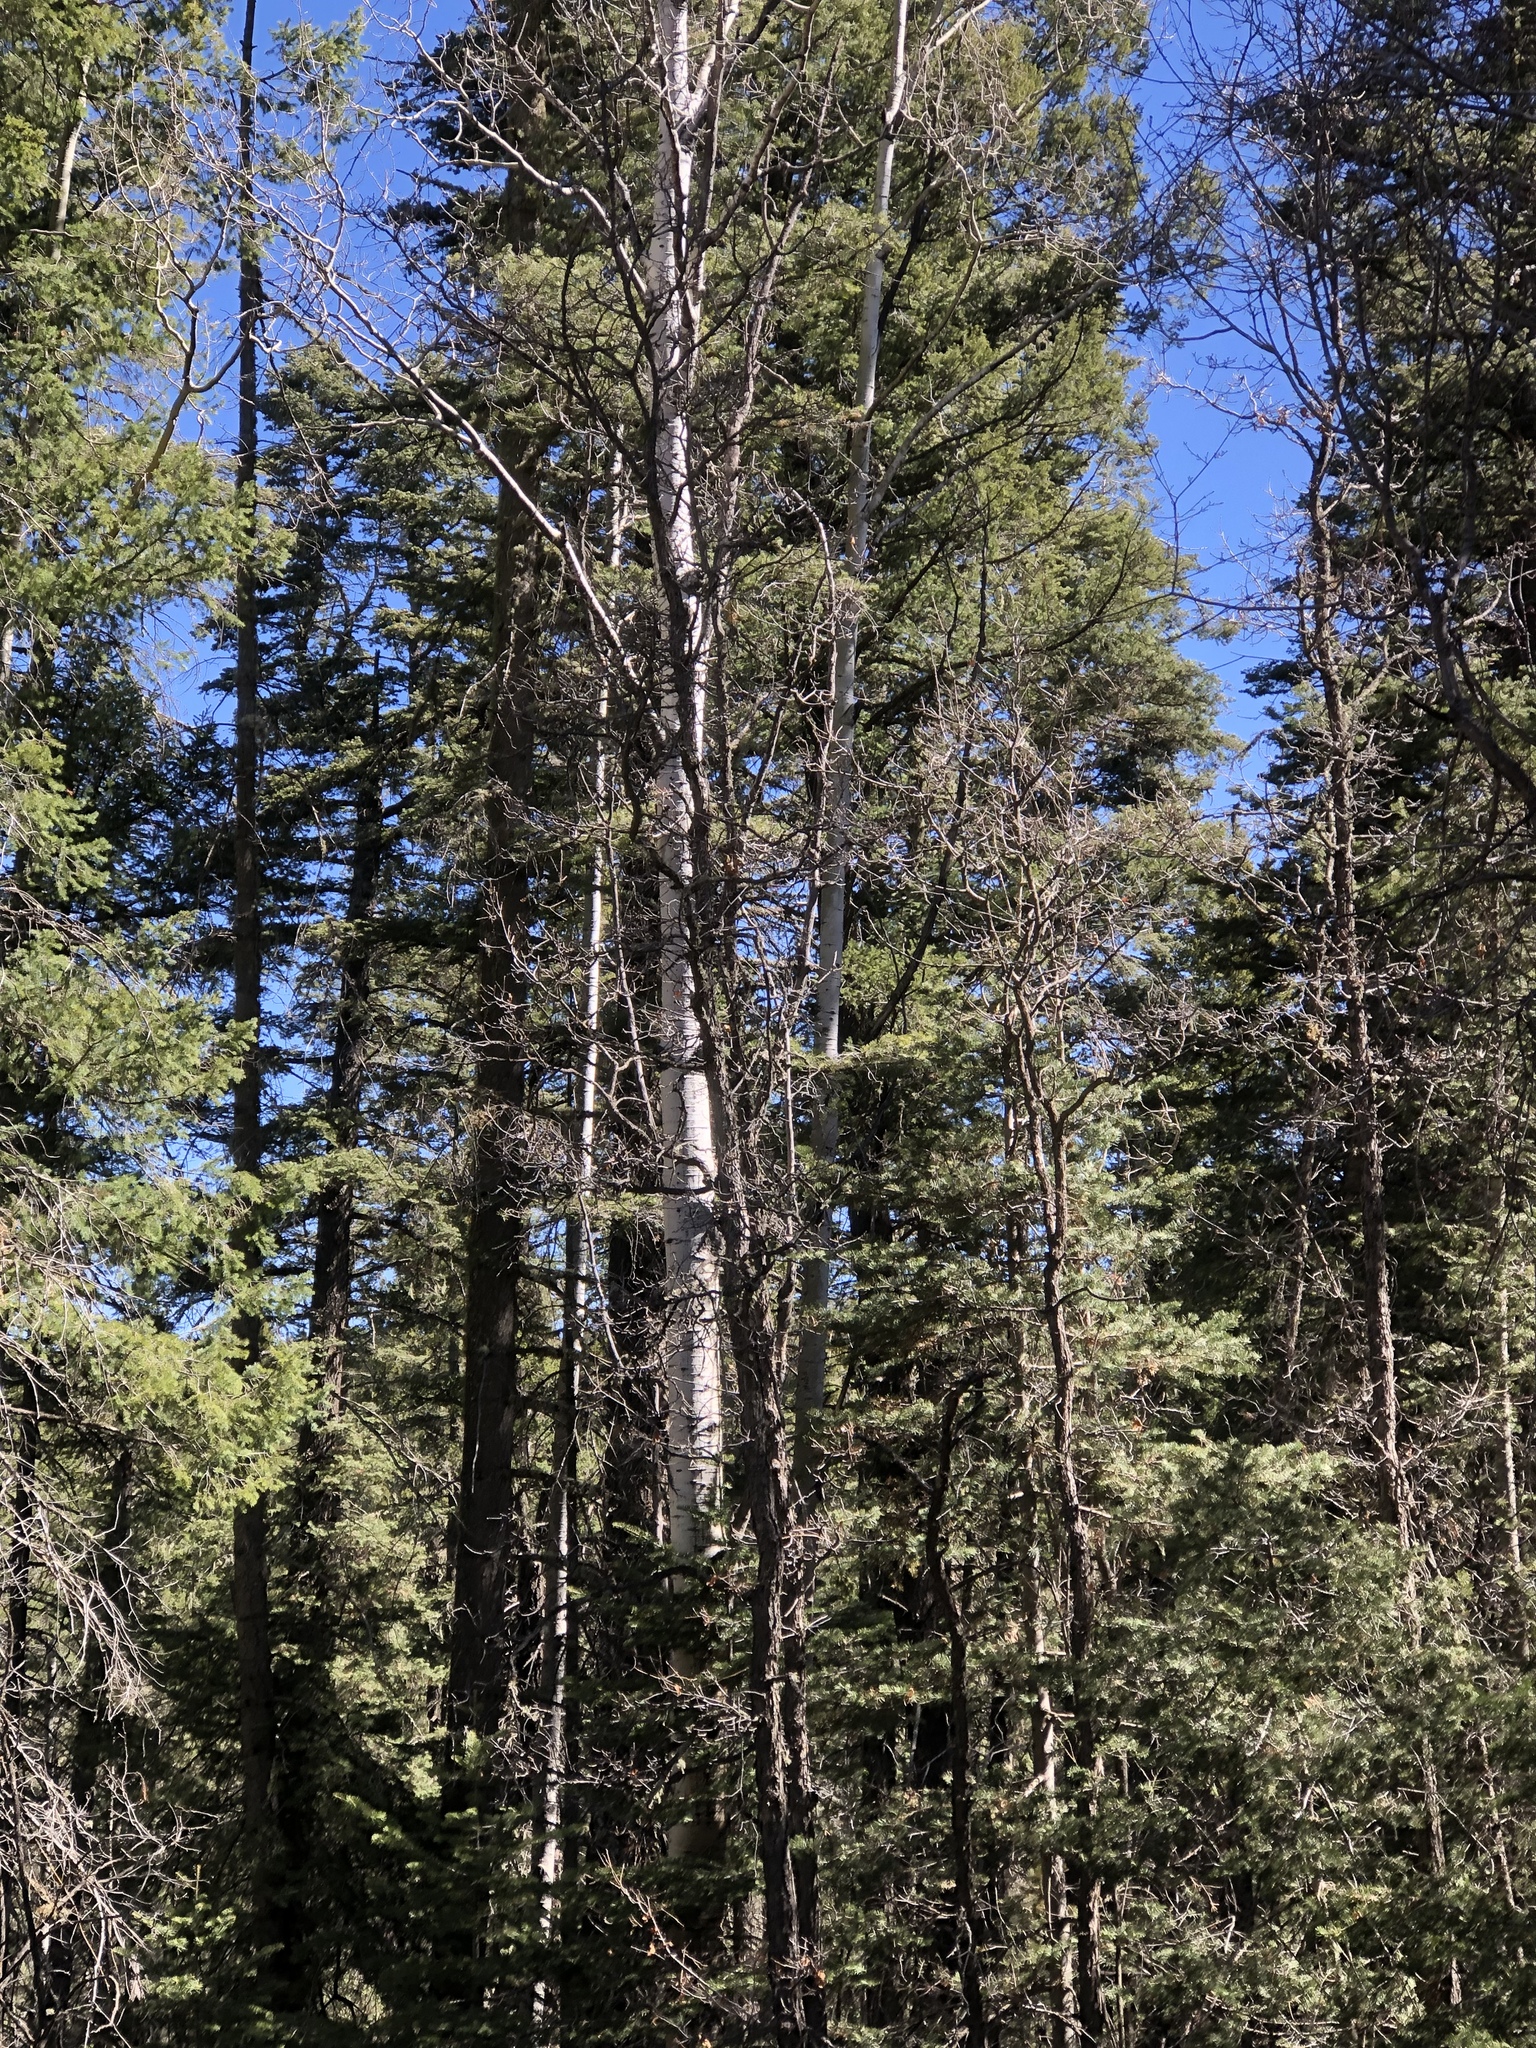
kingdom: Plantae
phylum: Tracheophyta
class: Magnoliopsida
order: Malpighiales
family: Salicaceae
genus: Populus
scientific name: Populus tremuloides
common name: Quaking aspen
